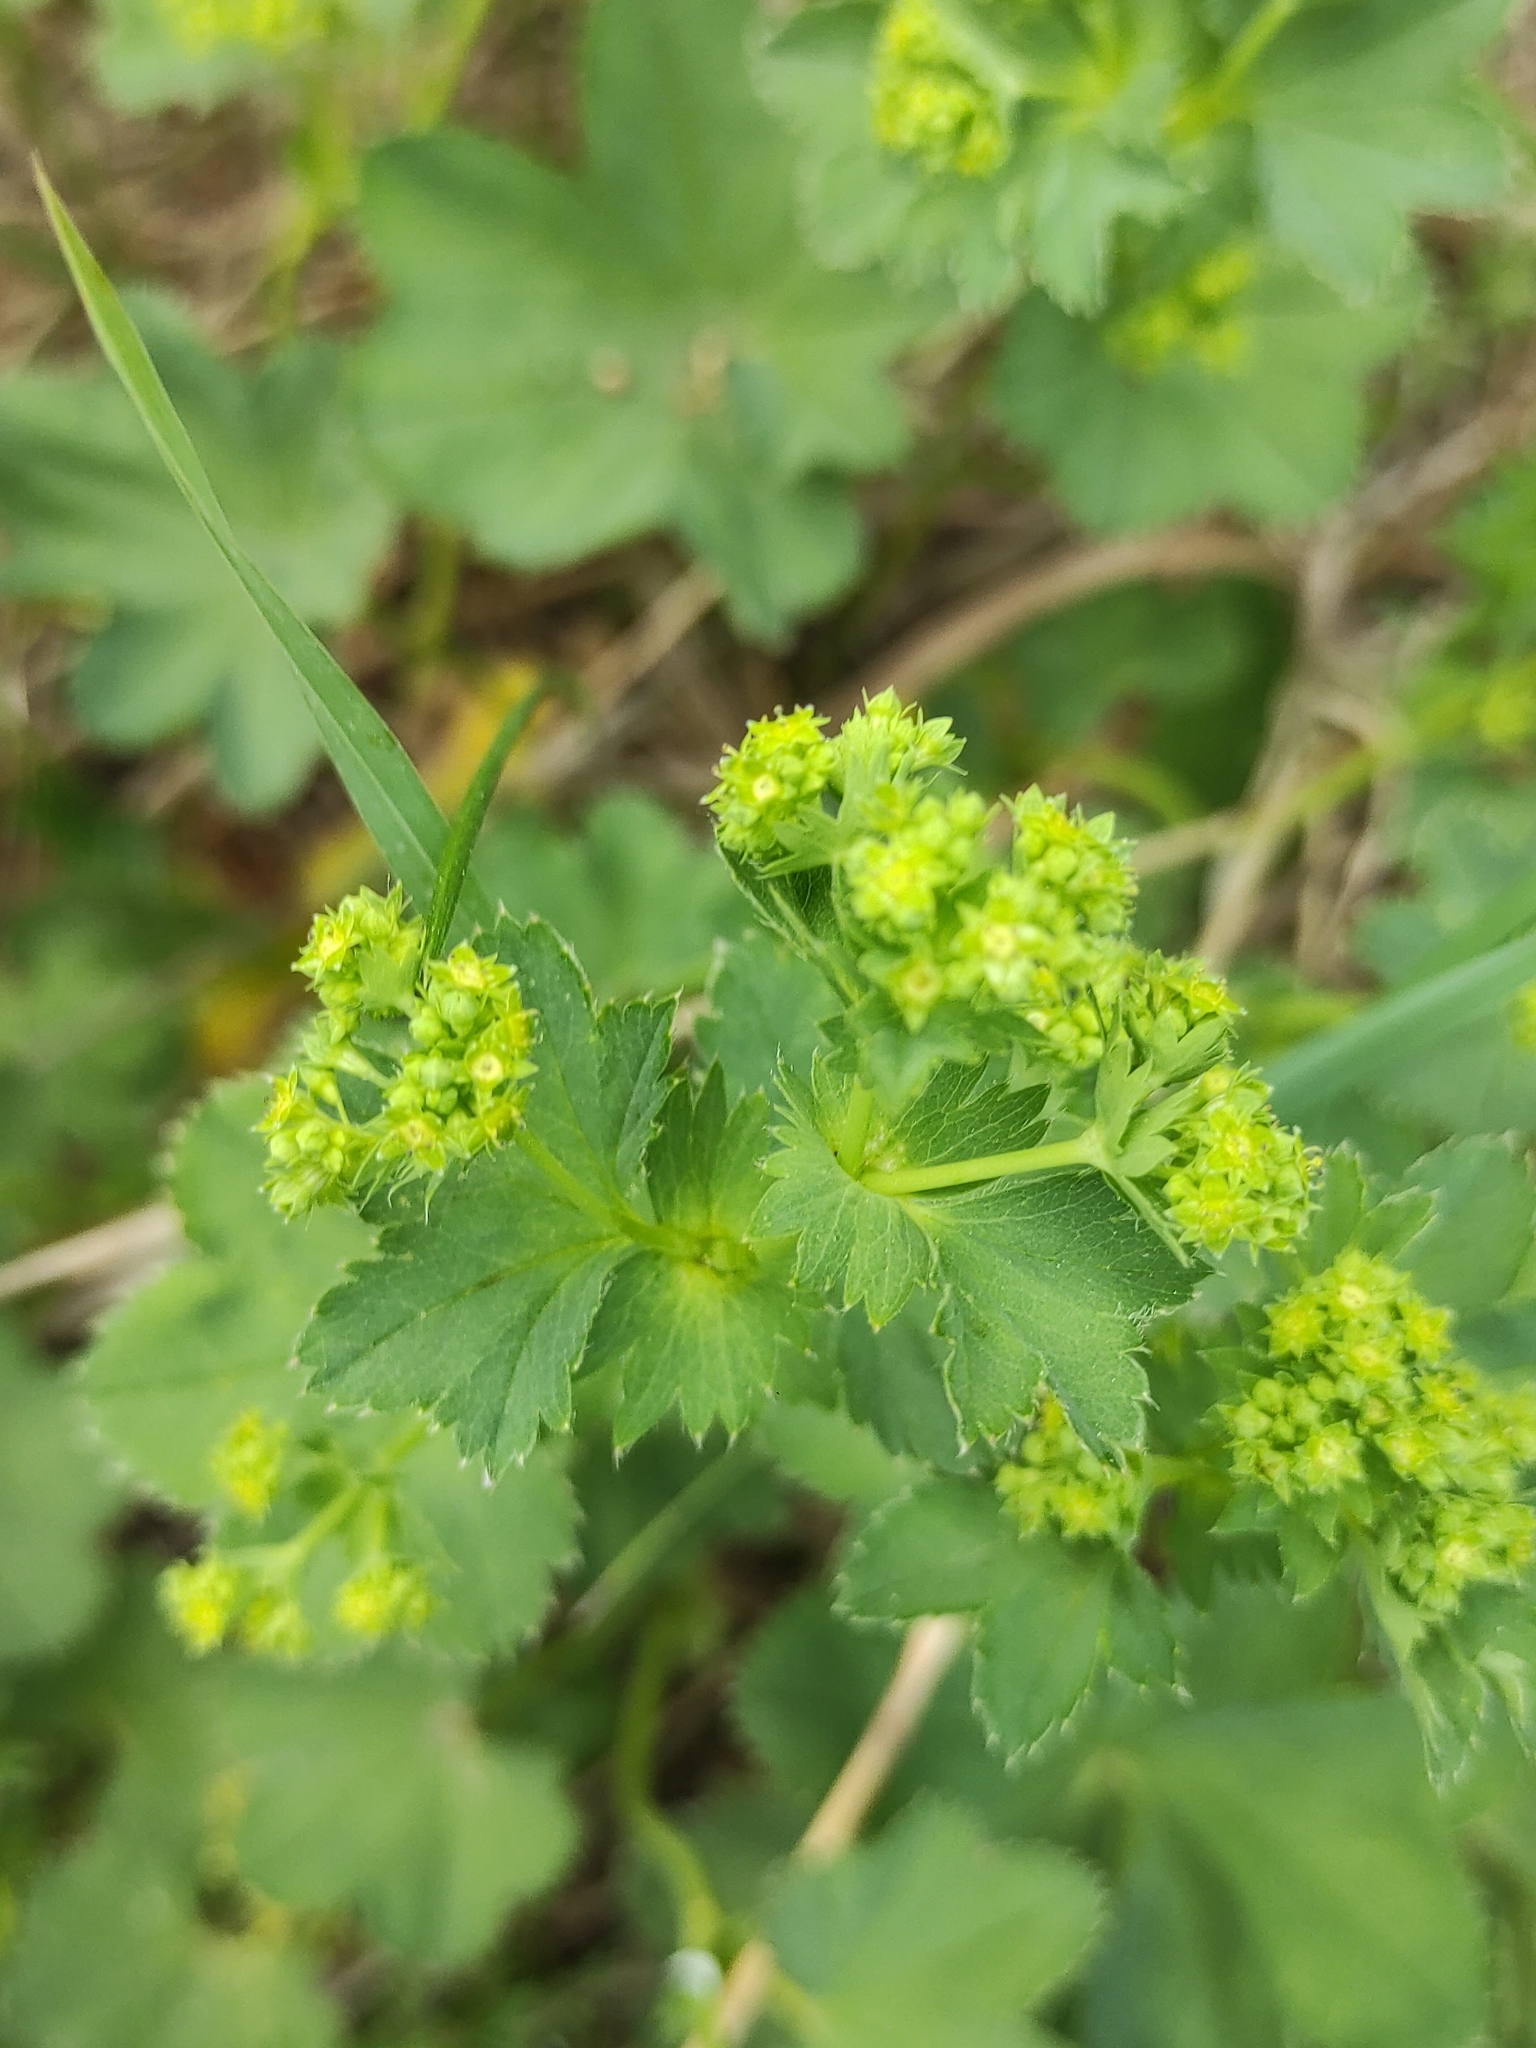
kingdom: Plantae
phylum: Tracheophyta
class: Magnoliopsida
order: Rosales
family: Rosaceae
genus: Alchemilla
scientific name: Alchemilla
